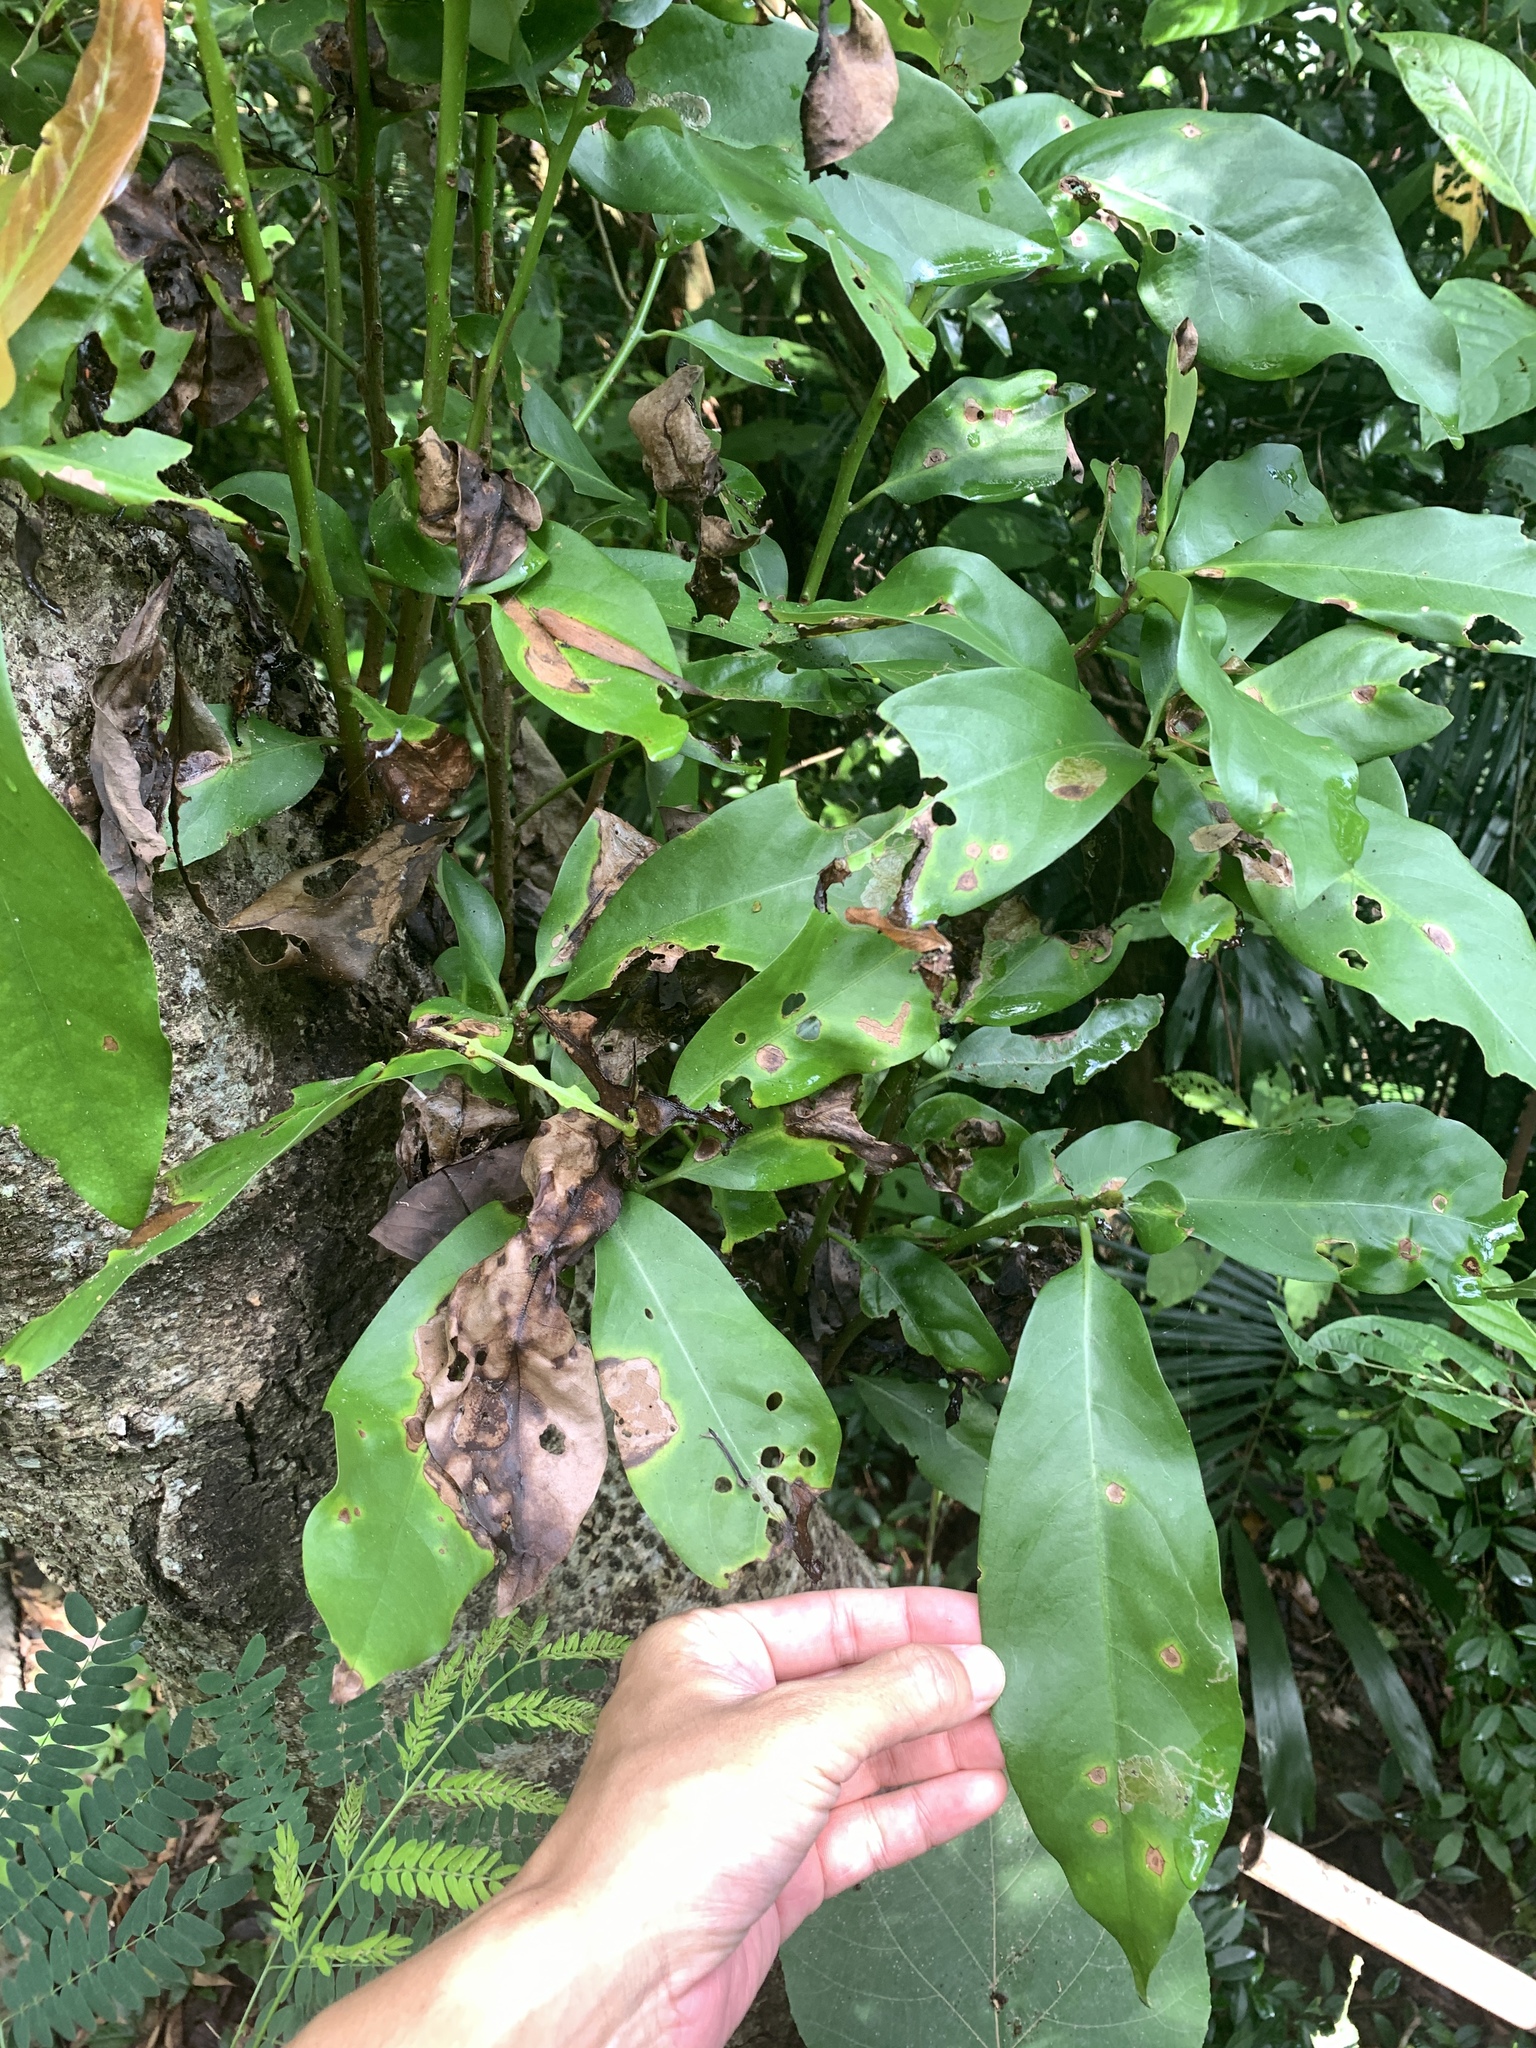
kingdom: Plantae
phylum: Tracheophyta
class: Magnoliopsida
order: Laurales
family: Lauraceae
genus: Machilus
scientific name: Machilus japonica
